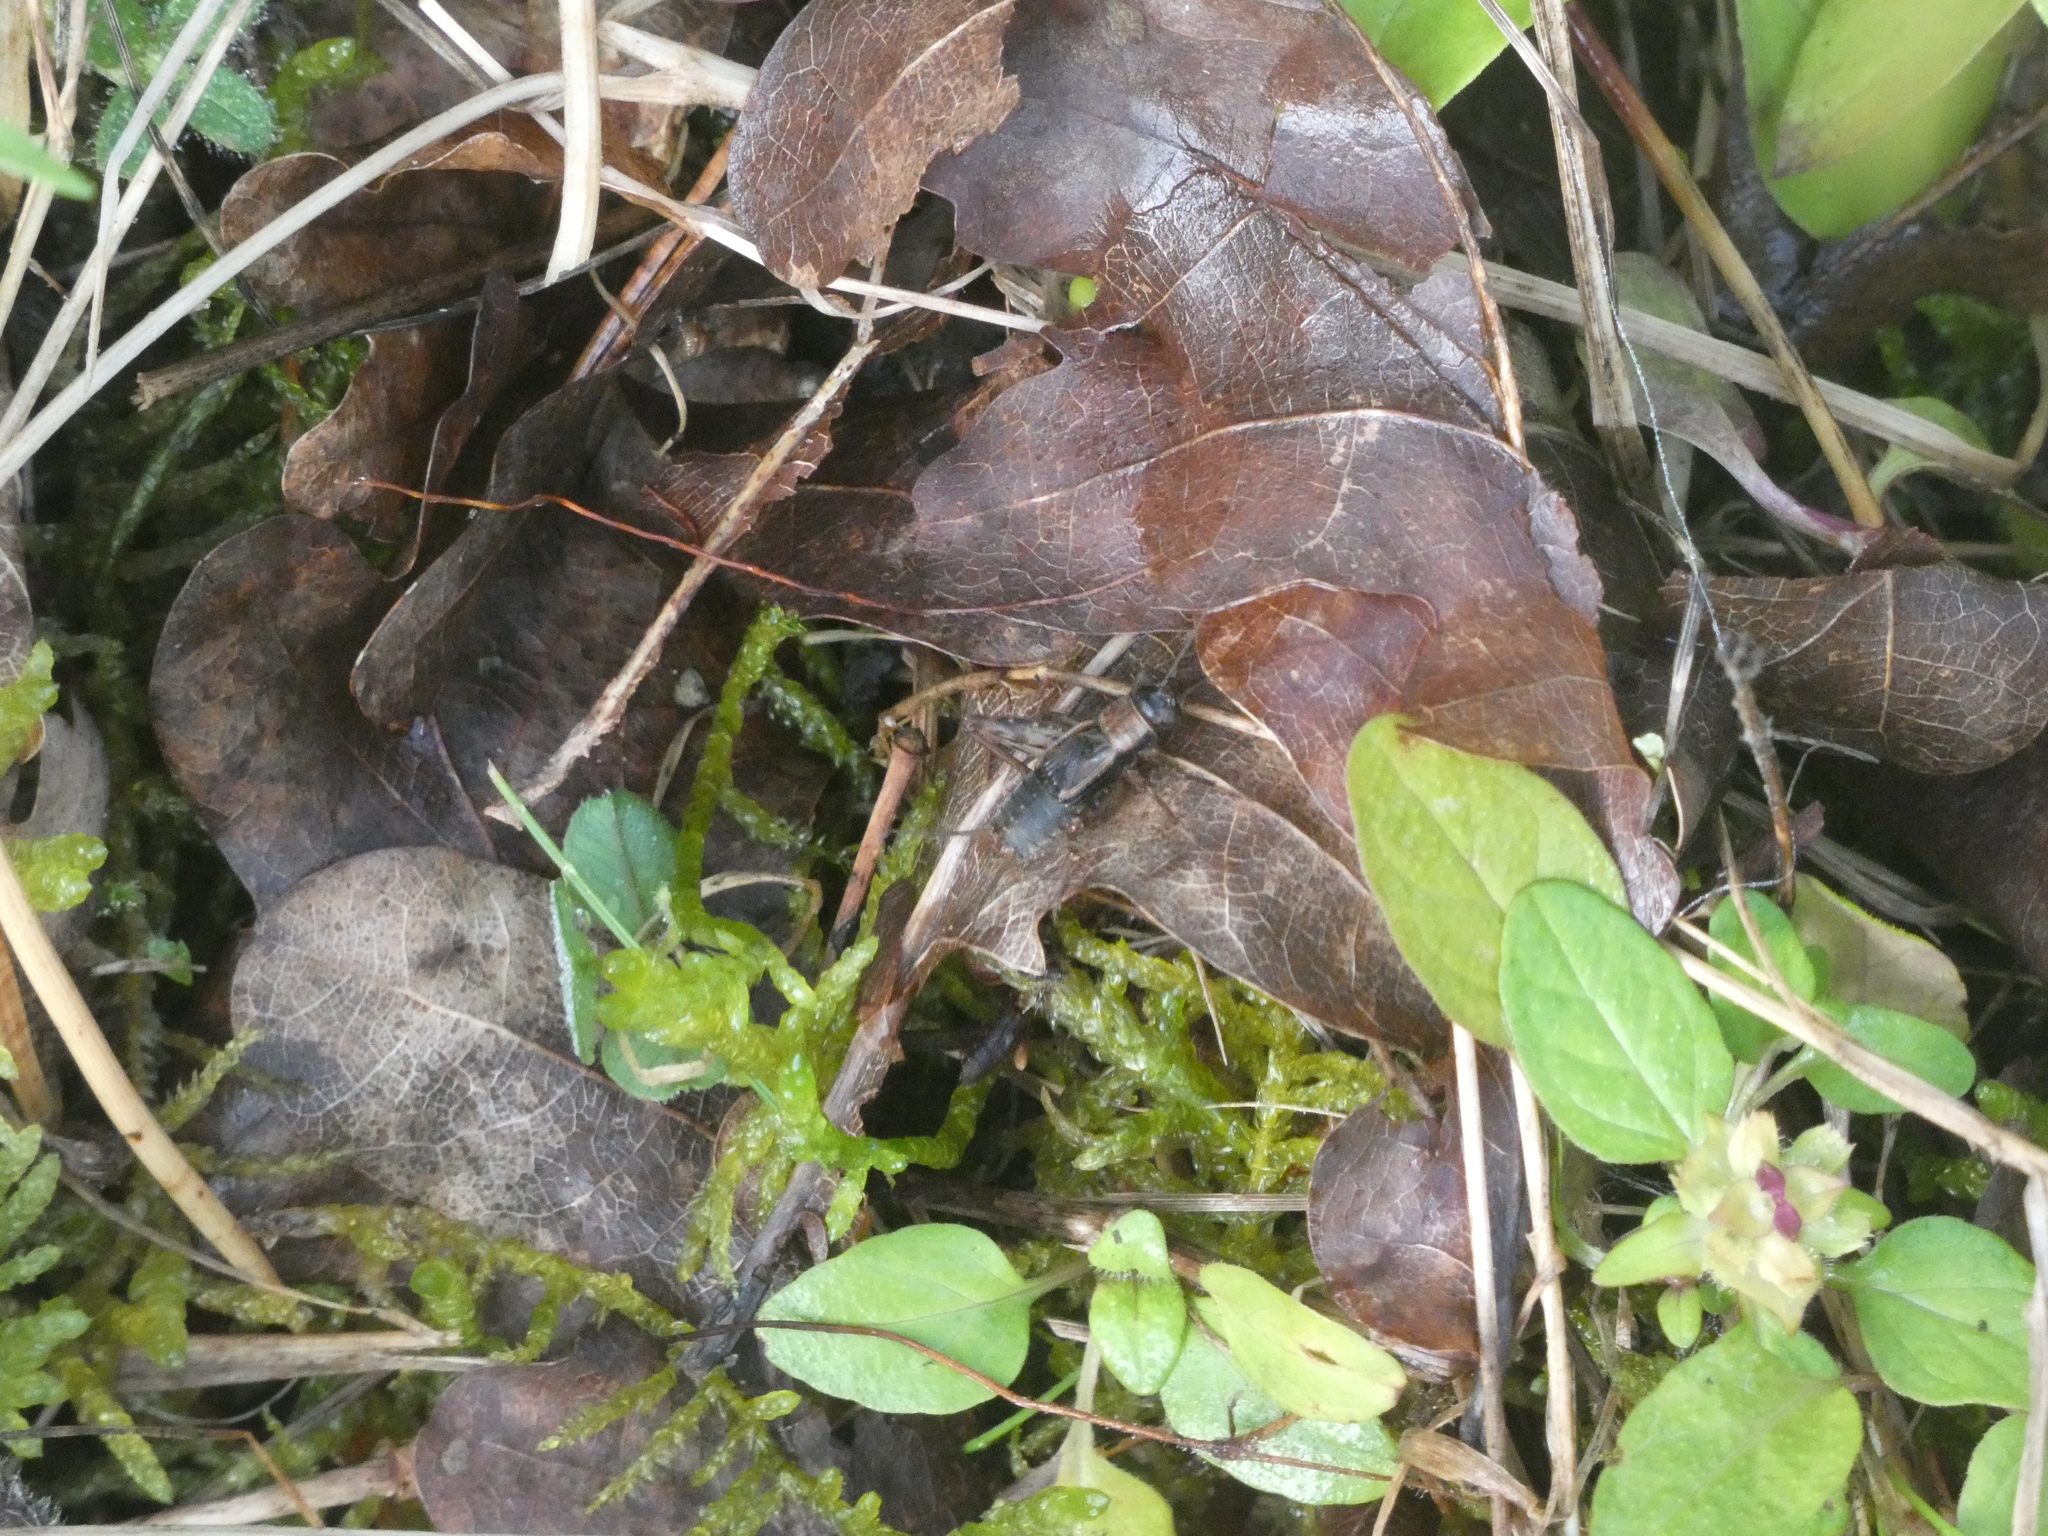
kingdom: Animalia
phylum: Arthropoda
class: Insecta
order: Orthoptera
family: Trigonidiidae
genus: Nemobius
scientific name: Nemobius sylvestris
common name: Wood-cricket
